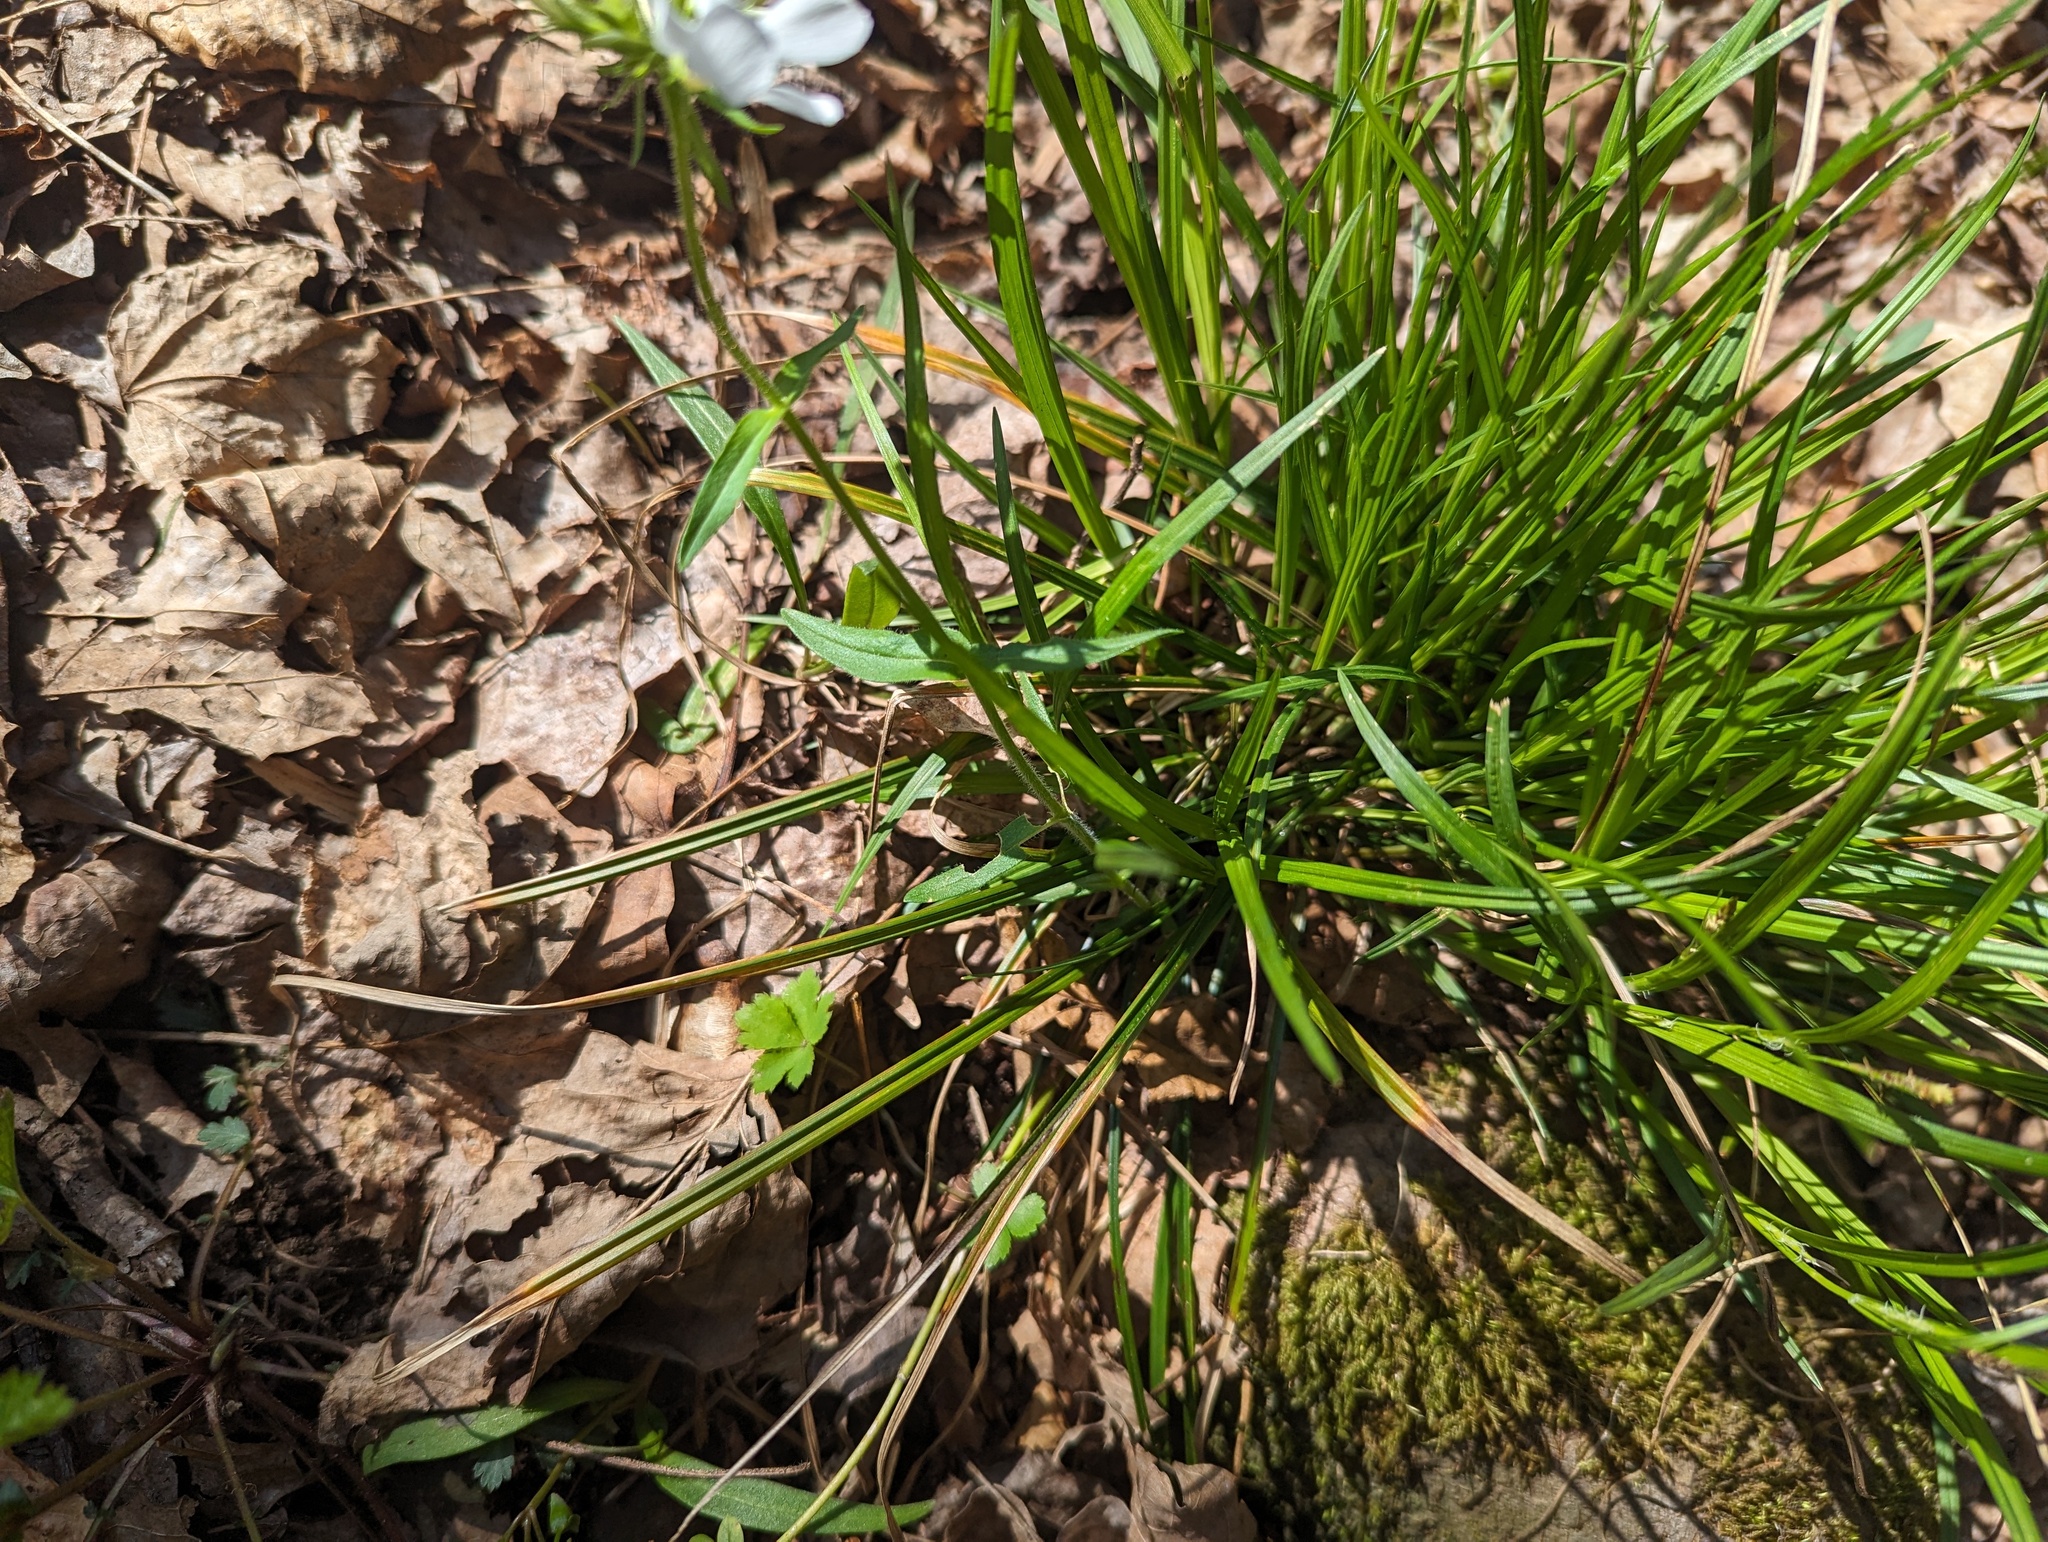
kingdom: Plantae
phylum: Tracheophyta
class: Magnoliopsida
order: Ericales
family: Polemoniaceae
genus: Phlox
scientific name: Phlox divaricata
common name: Blue phlox
